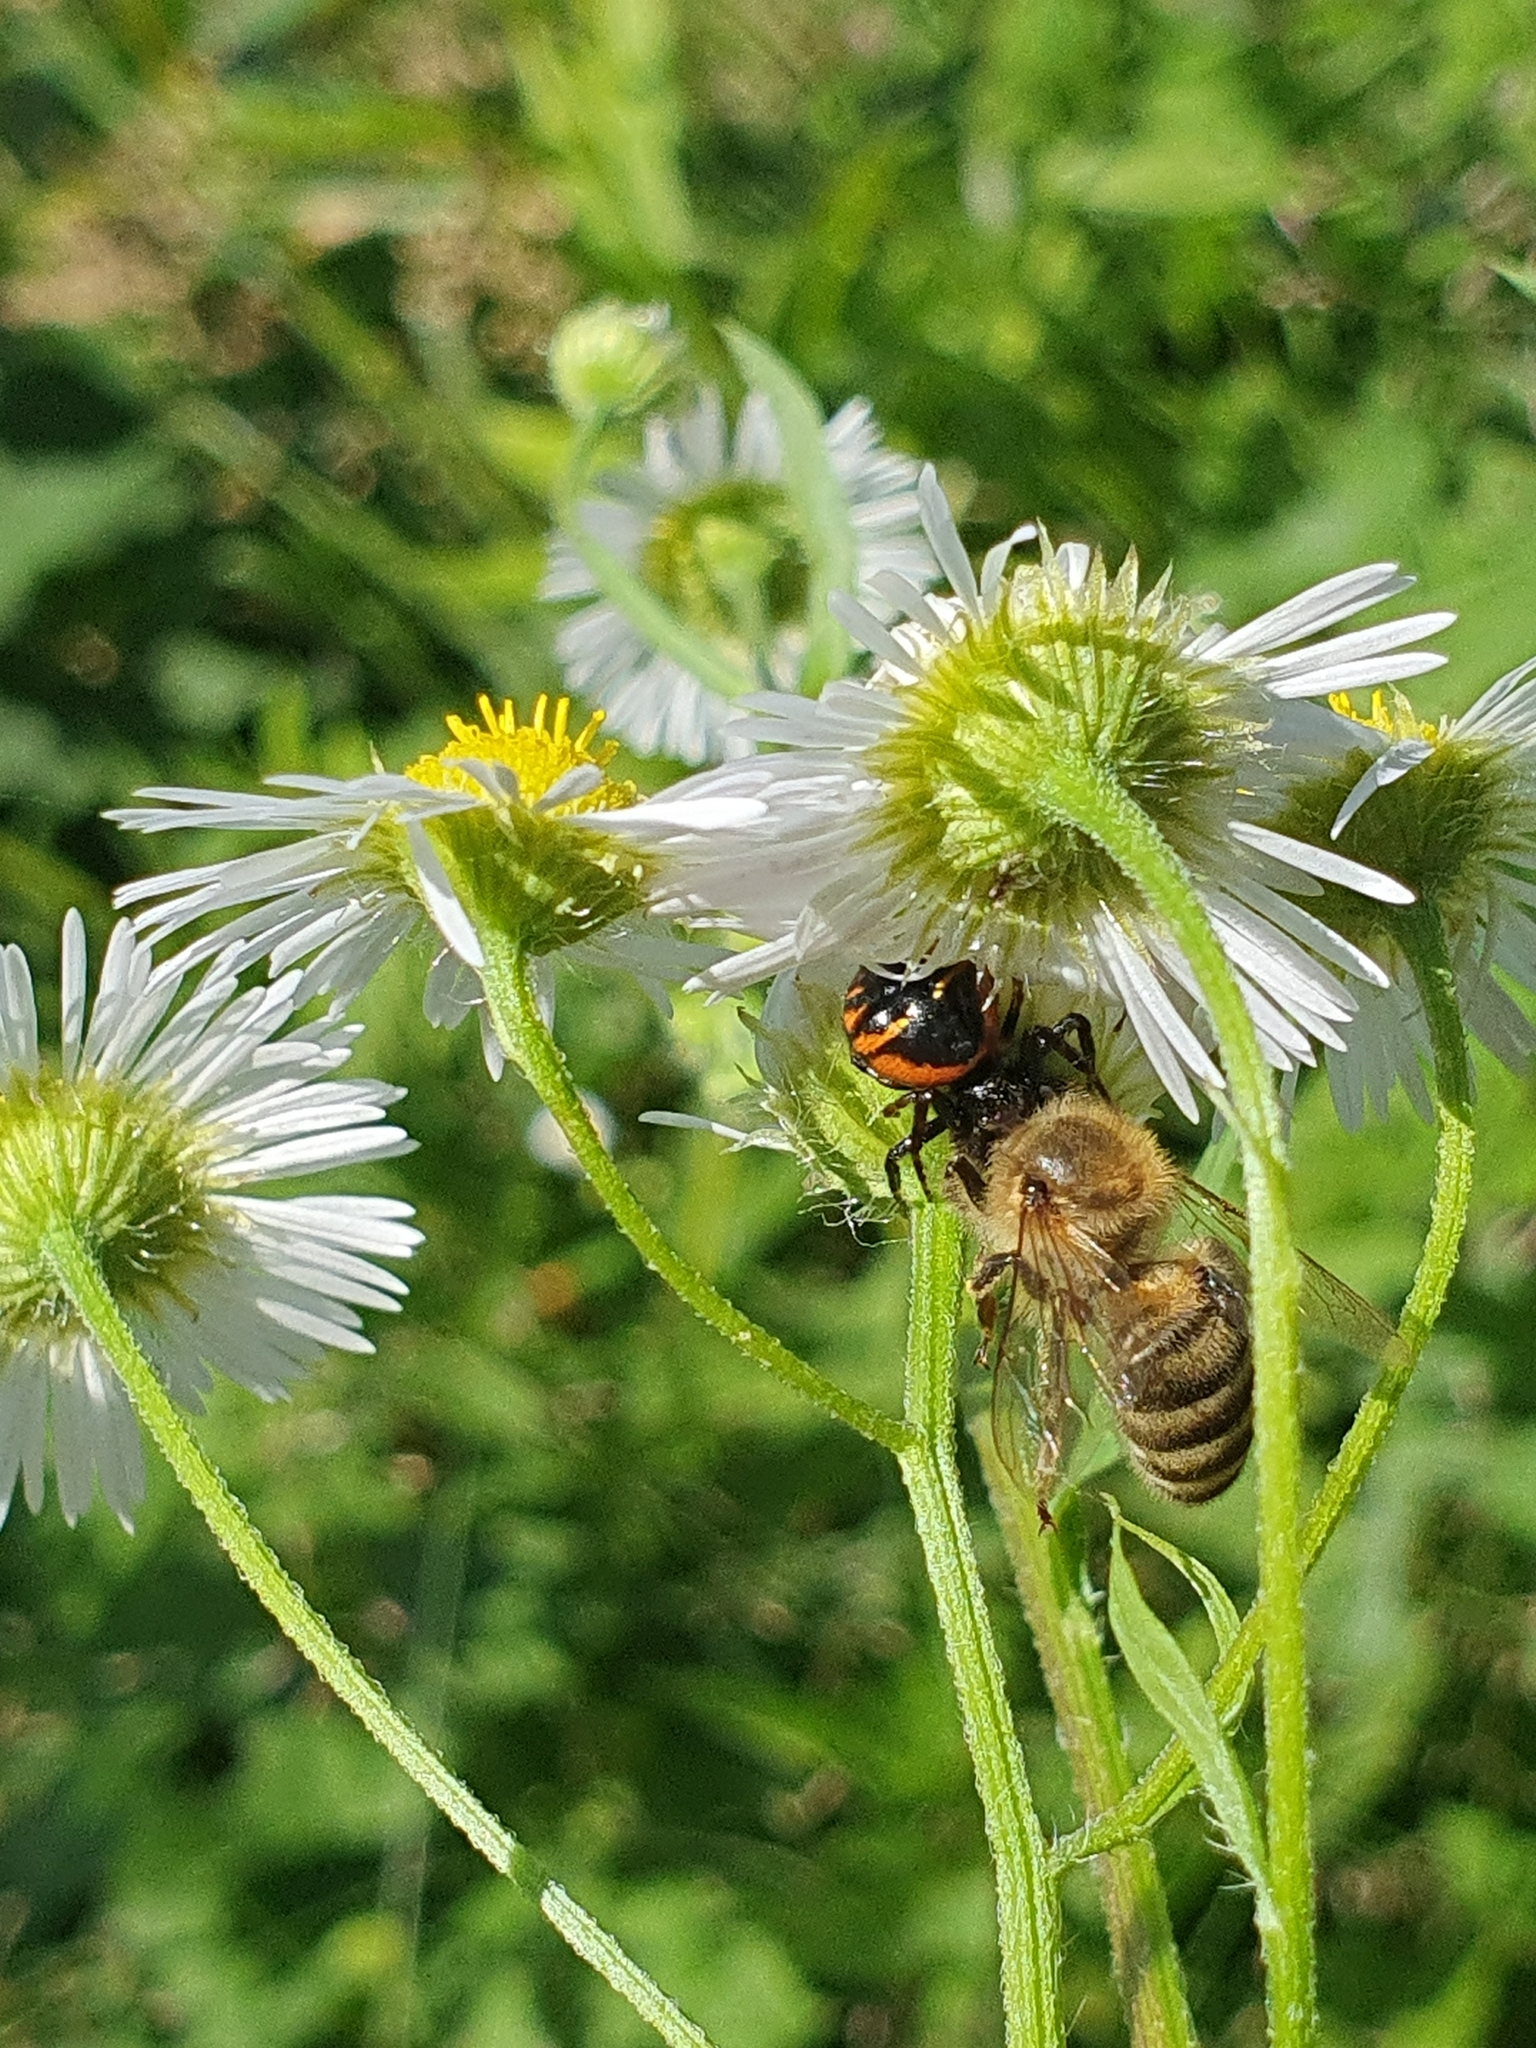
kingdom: Animalia
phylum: Arthropoda
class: Insecta
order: Hymenoptera
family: Apidae
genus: Apis
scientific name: Apis mellifera
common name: Honey bee
